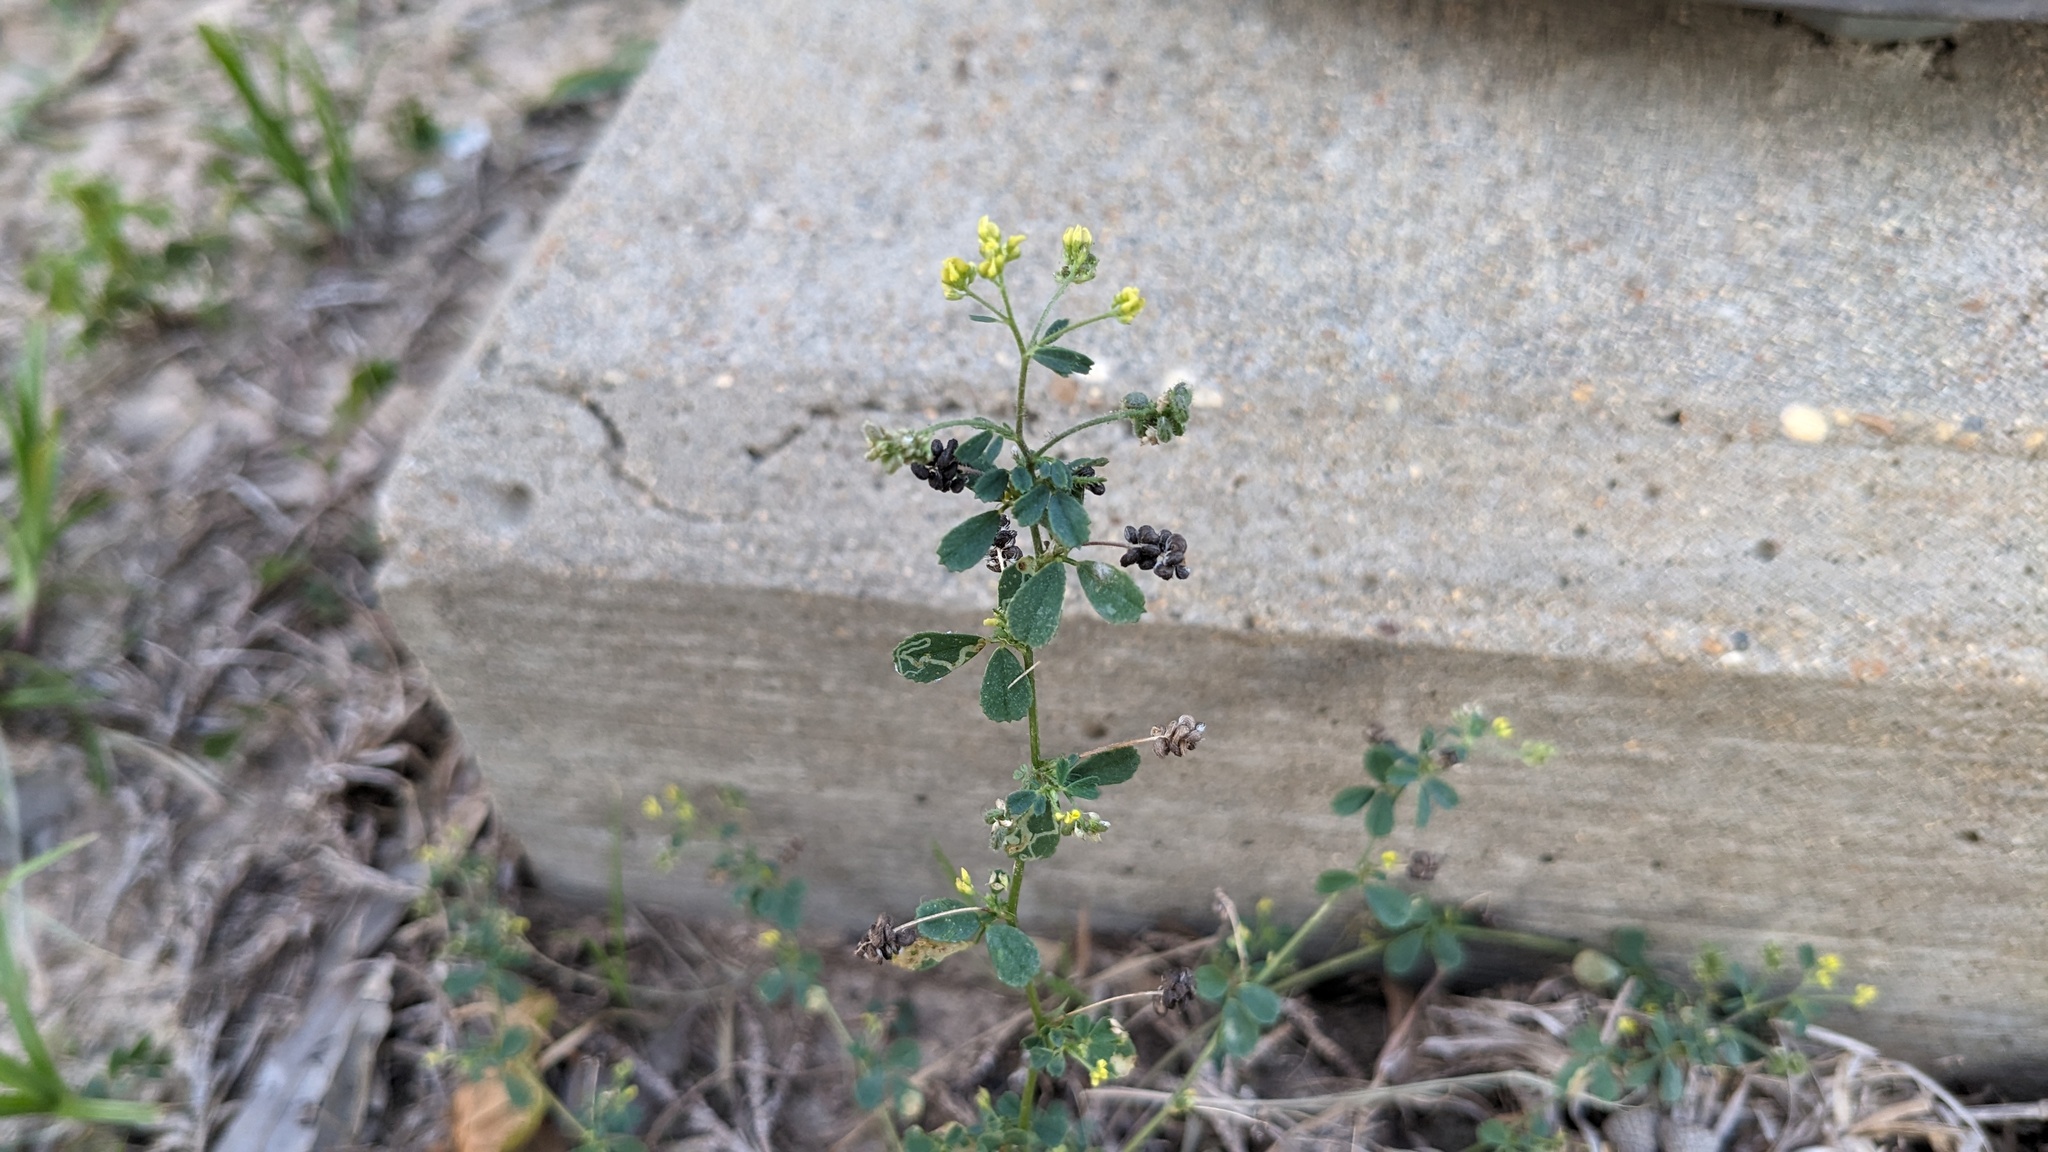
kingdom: Plantae
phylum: Tracheophyta
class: Magnoliopsida
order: Fabales
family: Fabaceae
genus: Medicago
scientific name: Medicago lupulina
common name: Black medick
